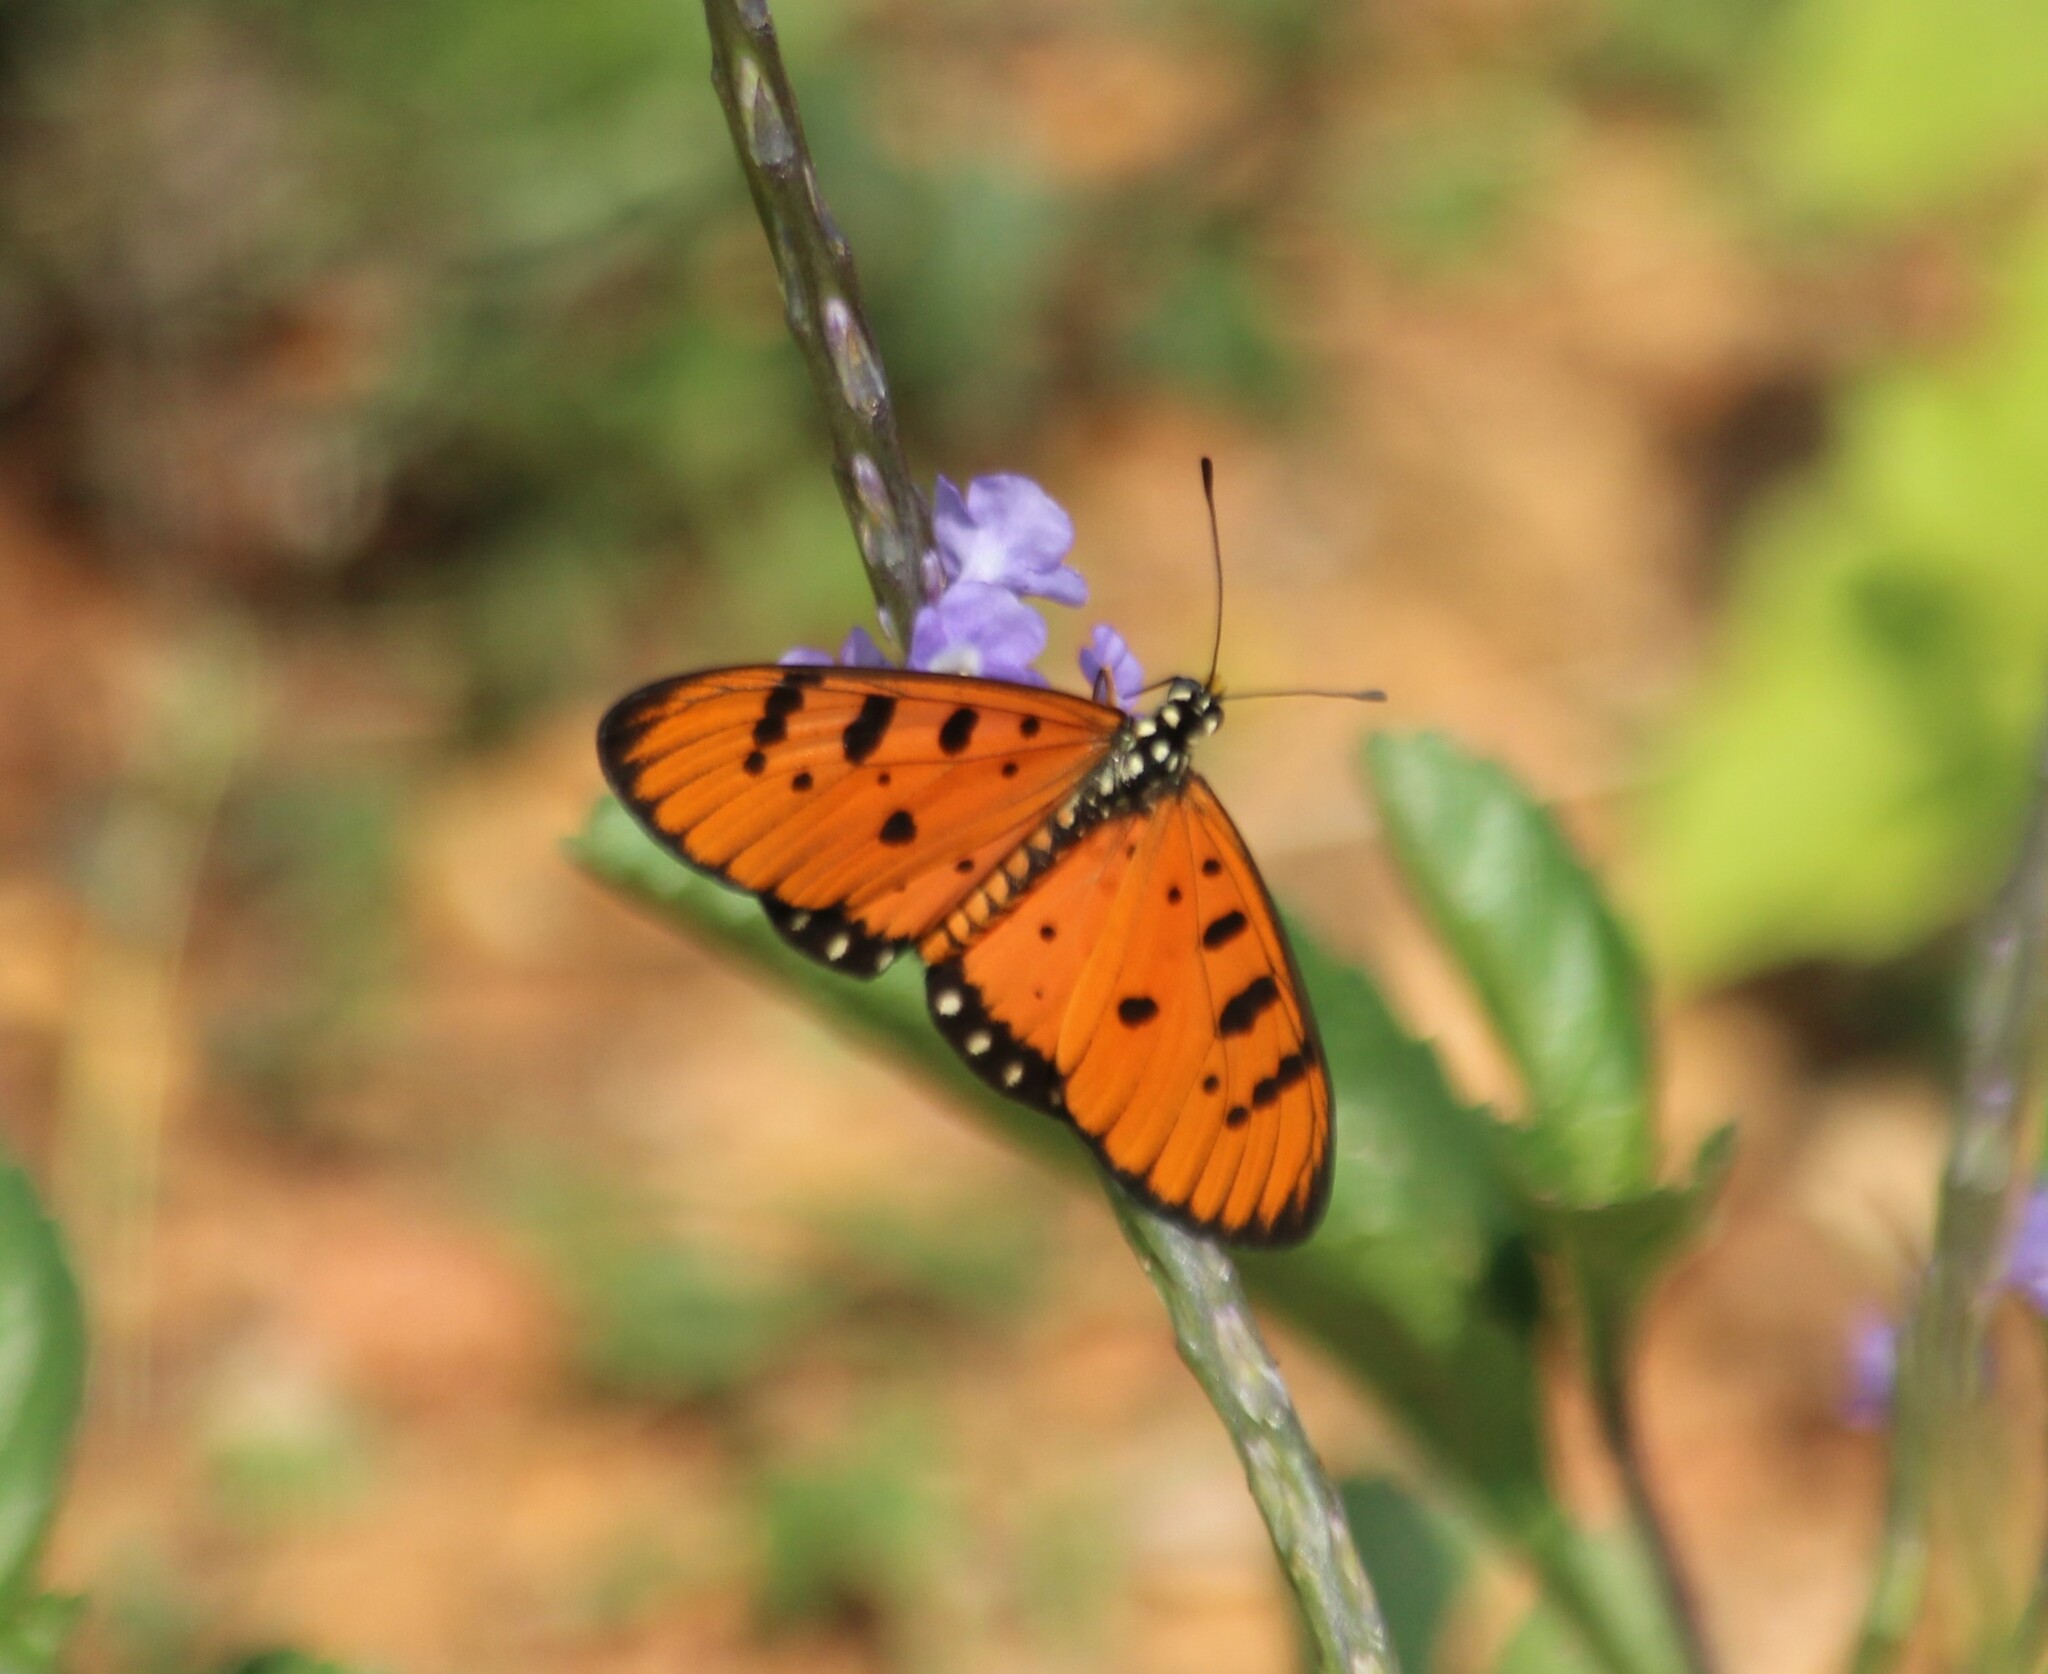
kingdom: Animalia
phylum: Arthropoda
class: Insecta
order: Lepidoptera
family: Nymphalidae
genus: Acraea
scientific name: Acraea terpsicore
